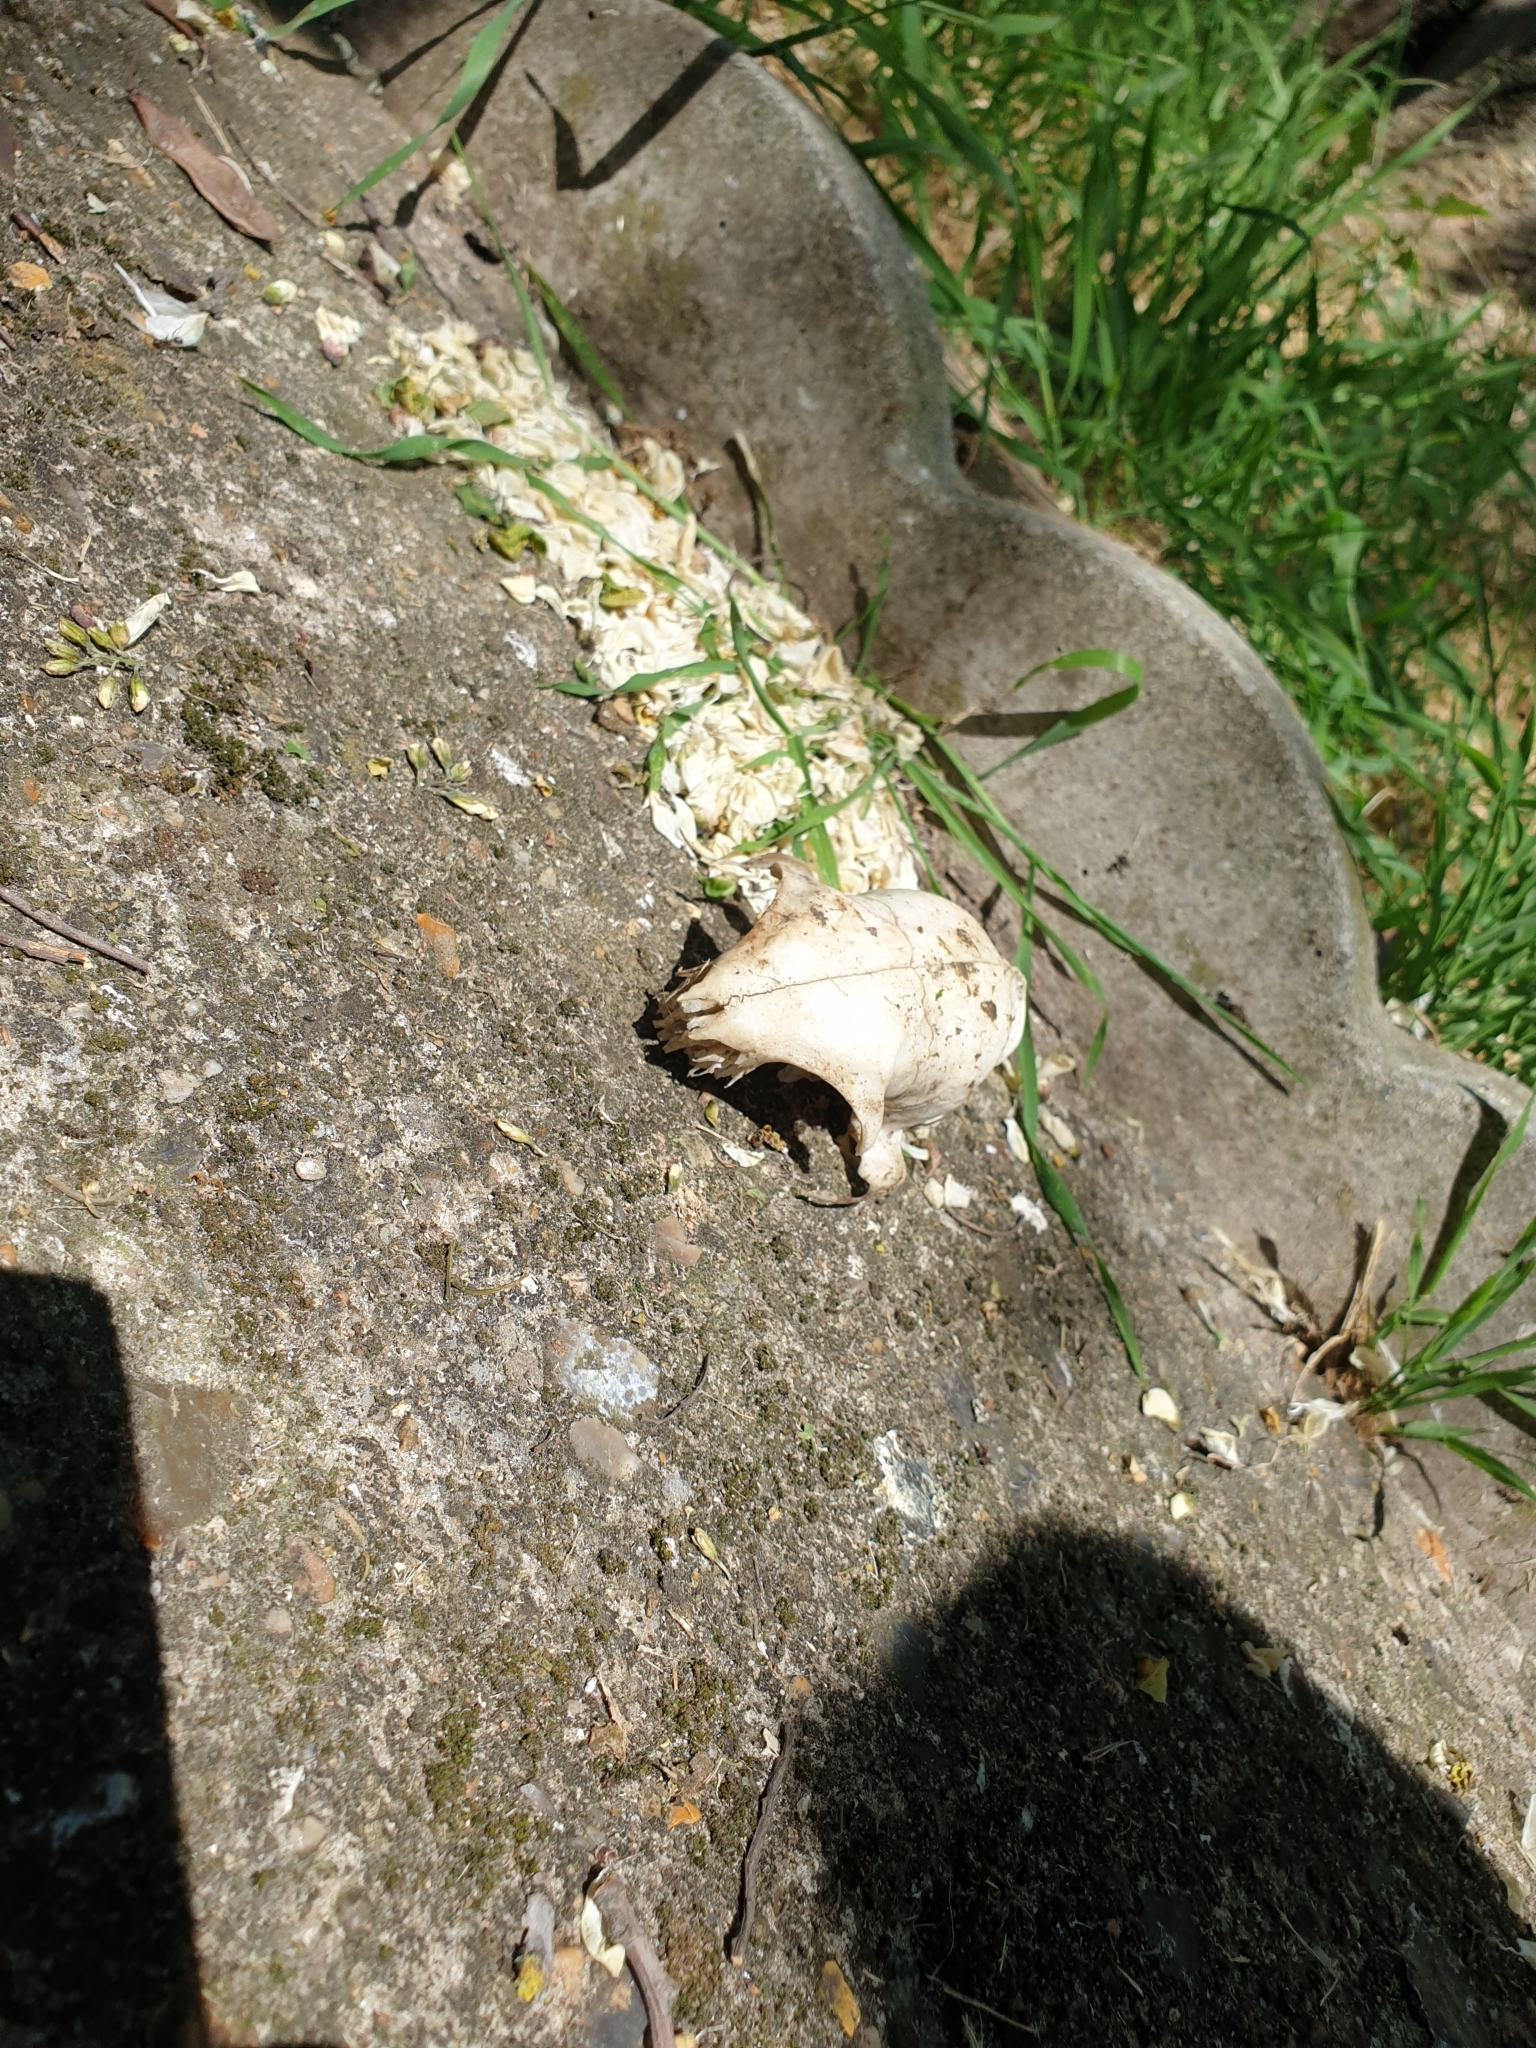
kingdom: Animalia
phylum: Chordata
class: Mammalia
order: Carnivora
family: Felidae
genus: Felis
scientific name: Felis catus
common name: Domestic cat
